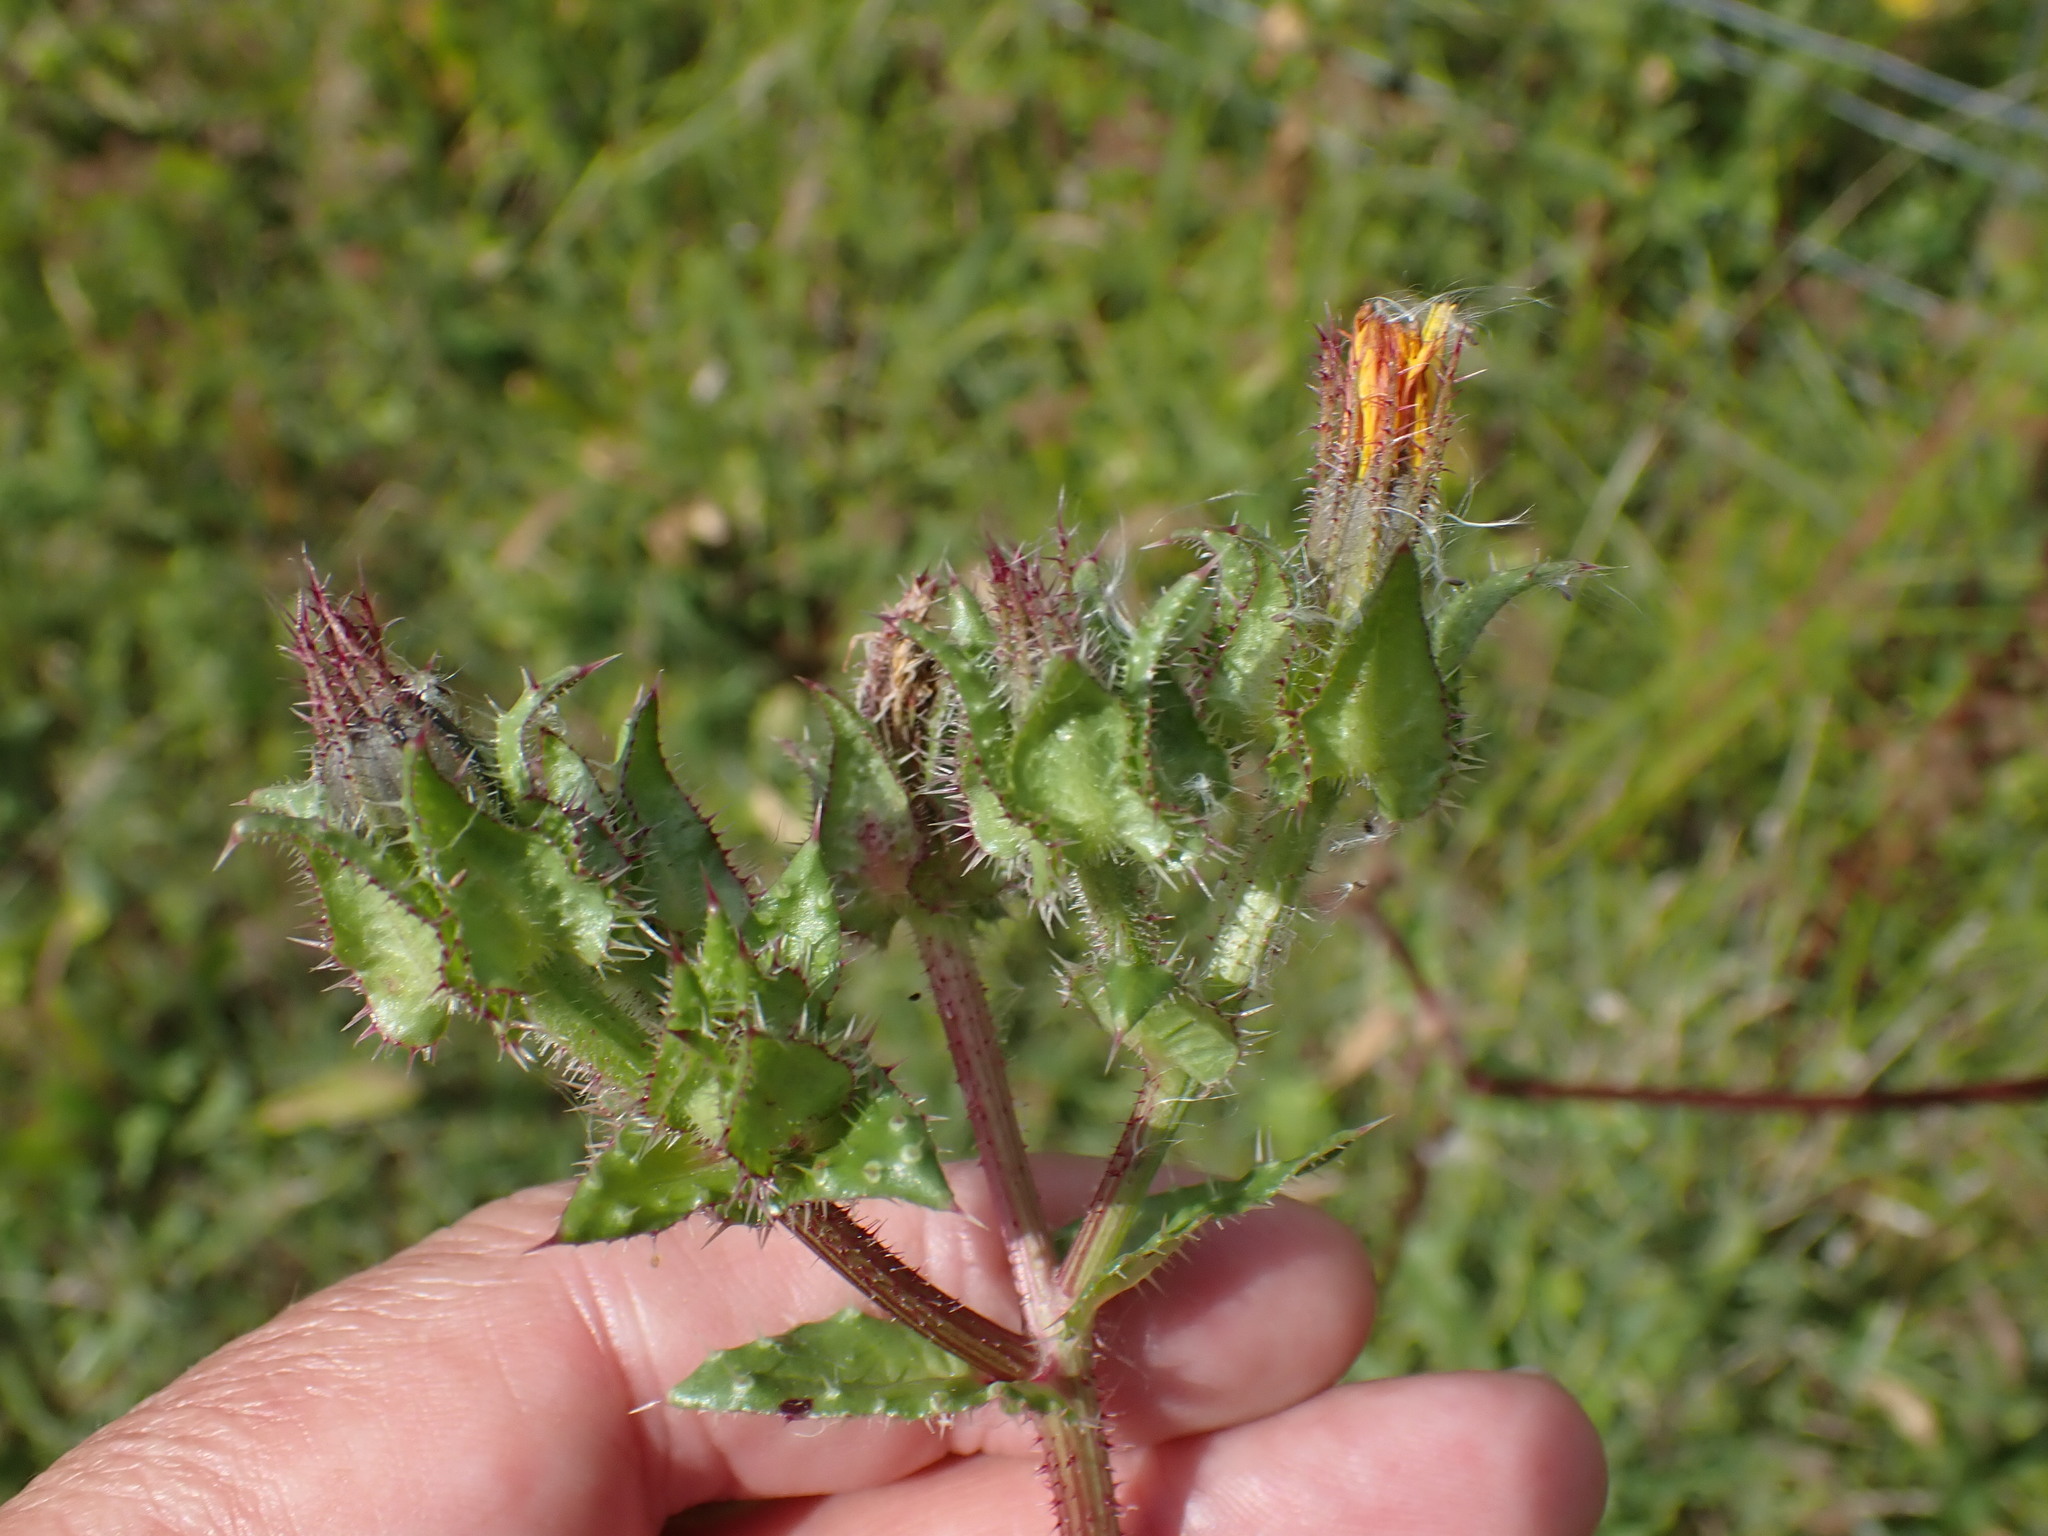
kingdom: Plantae
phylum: Tracheophyta
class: Magnoliopsida
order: Asterales
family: Asteraceae
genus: Helminthotheca
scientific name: Helminthotheca echioides
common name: Ox-tongue
